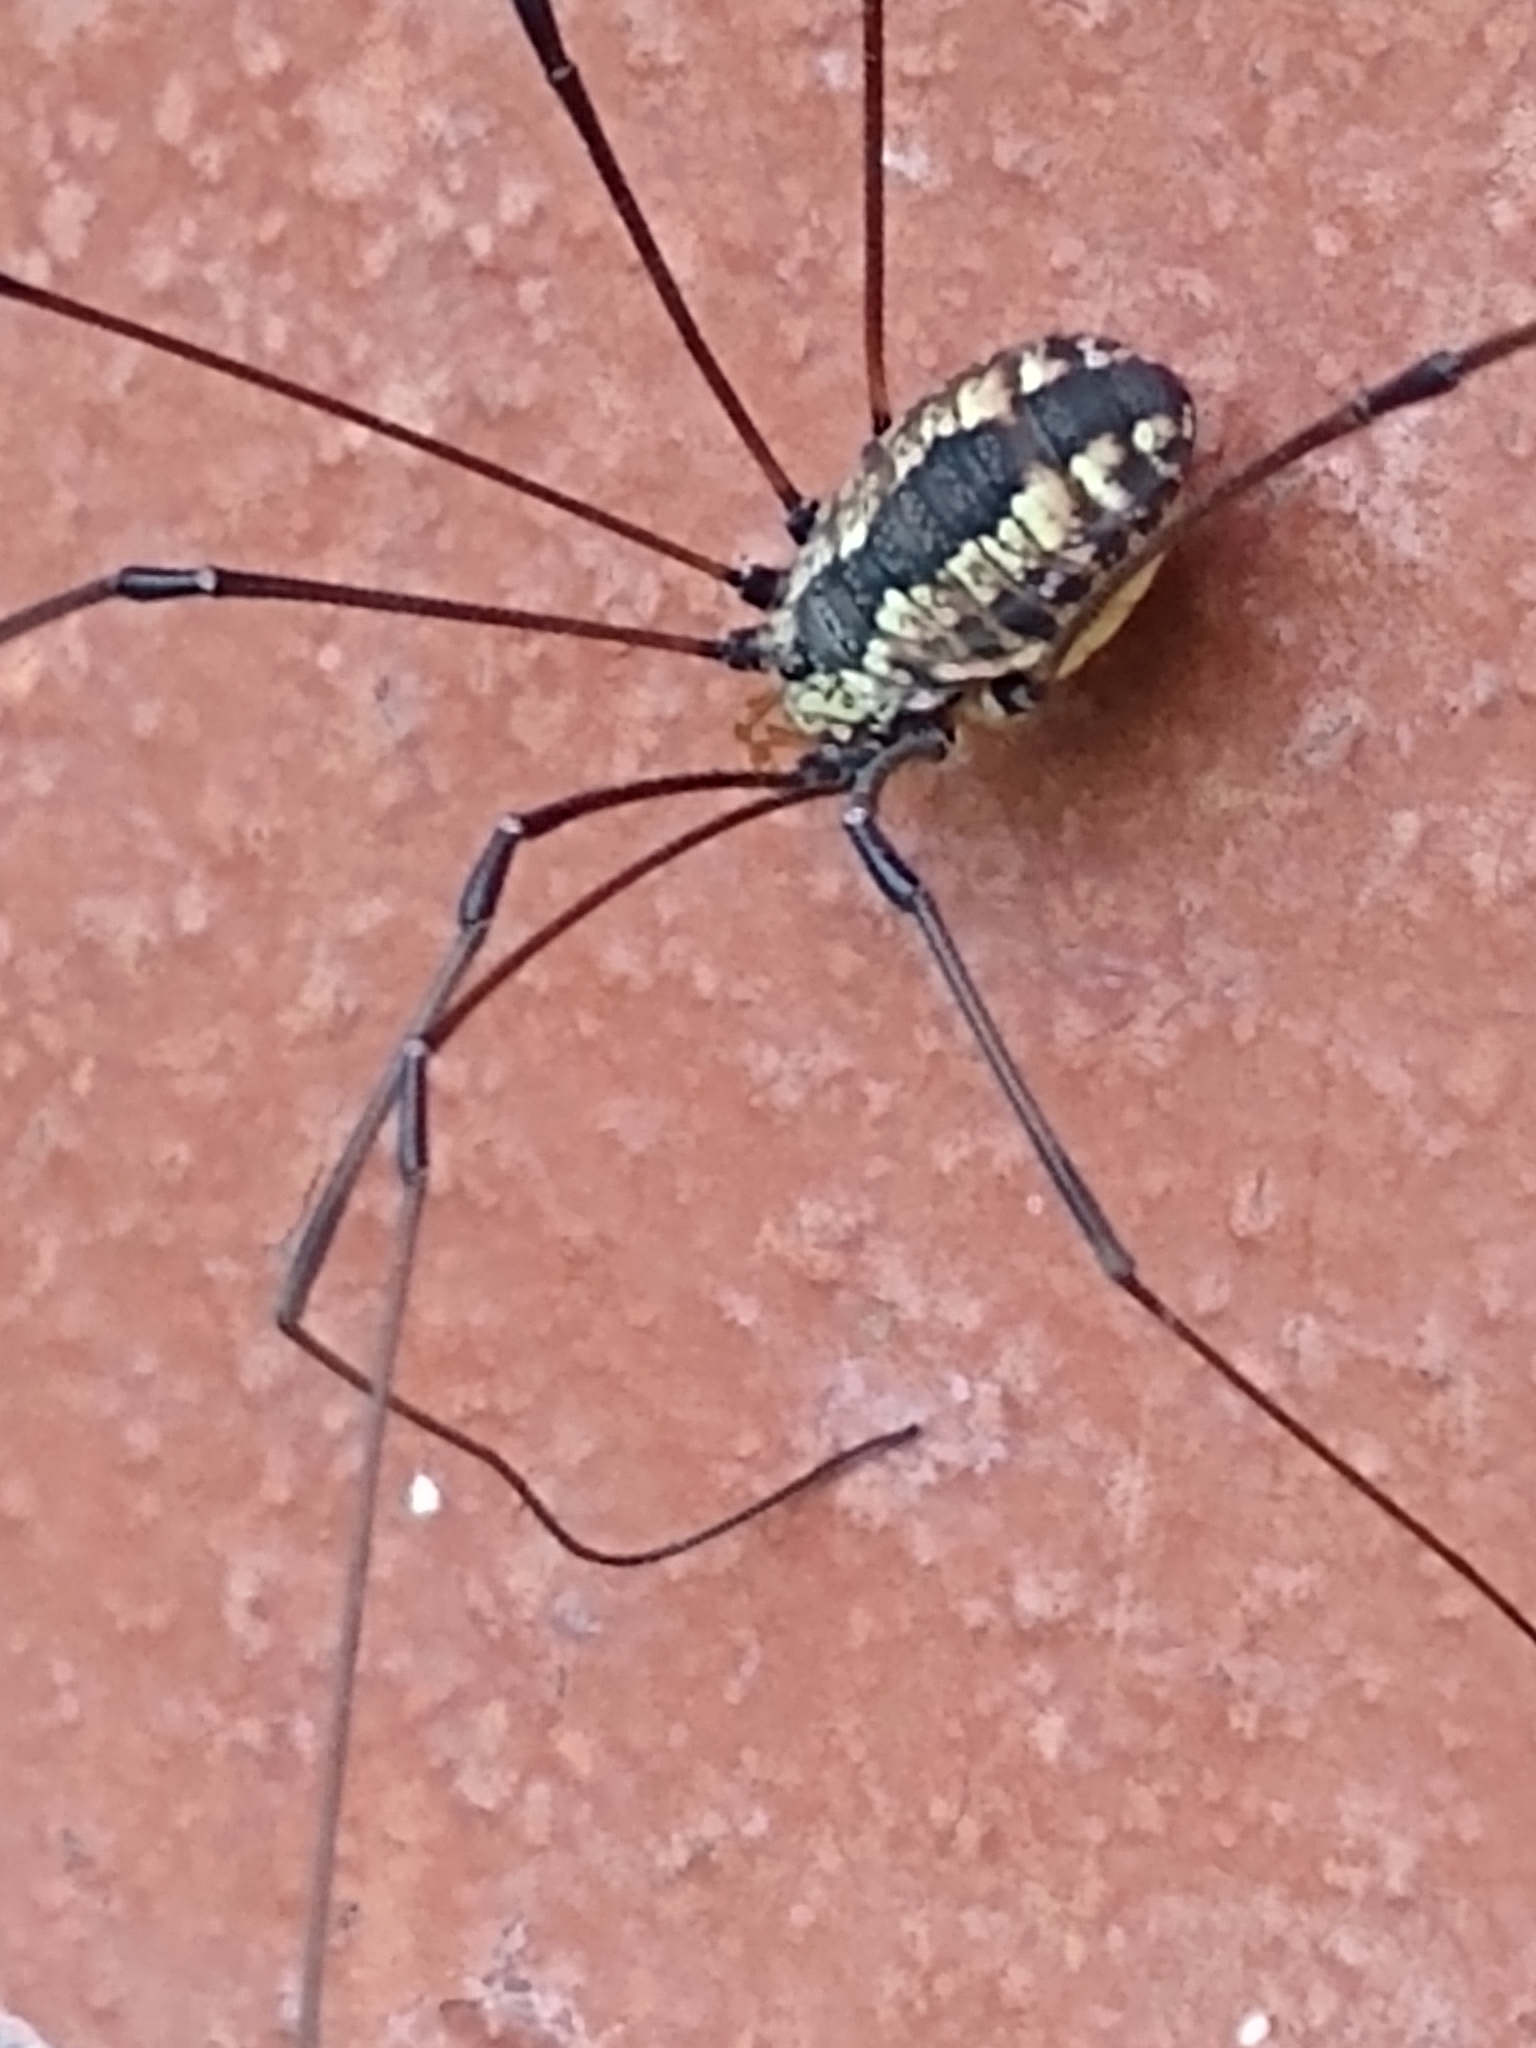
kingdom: Animalia
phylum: Arthropoda
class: Arachnida
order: Opiliones
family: Sclerosomatidae
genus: Leiobunum
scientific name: Leiobunum vittatum
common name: Eastern harvestman
